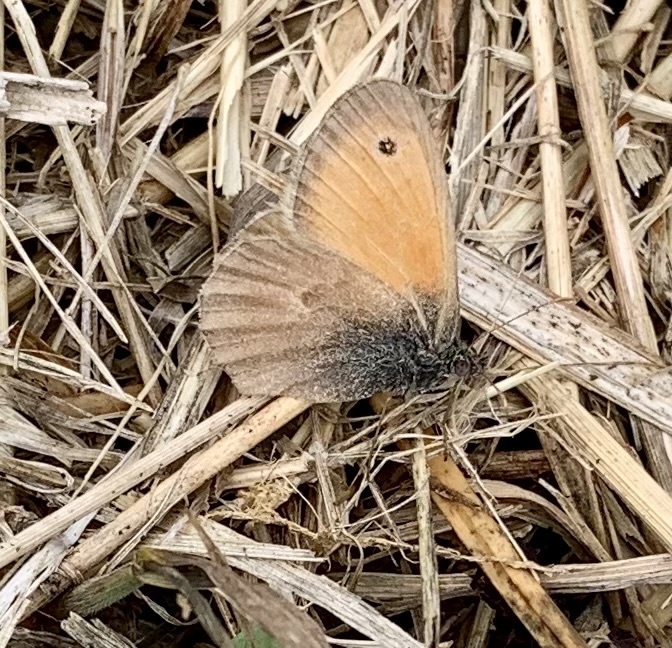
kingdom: Animalia
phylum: Arthropoda
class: Insecta
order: Lepidoptera
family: Nymphalidae
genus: Coenonympha
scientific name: Coenonympha pamphilus
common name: Small heath
